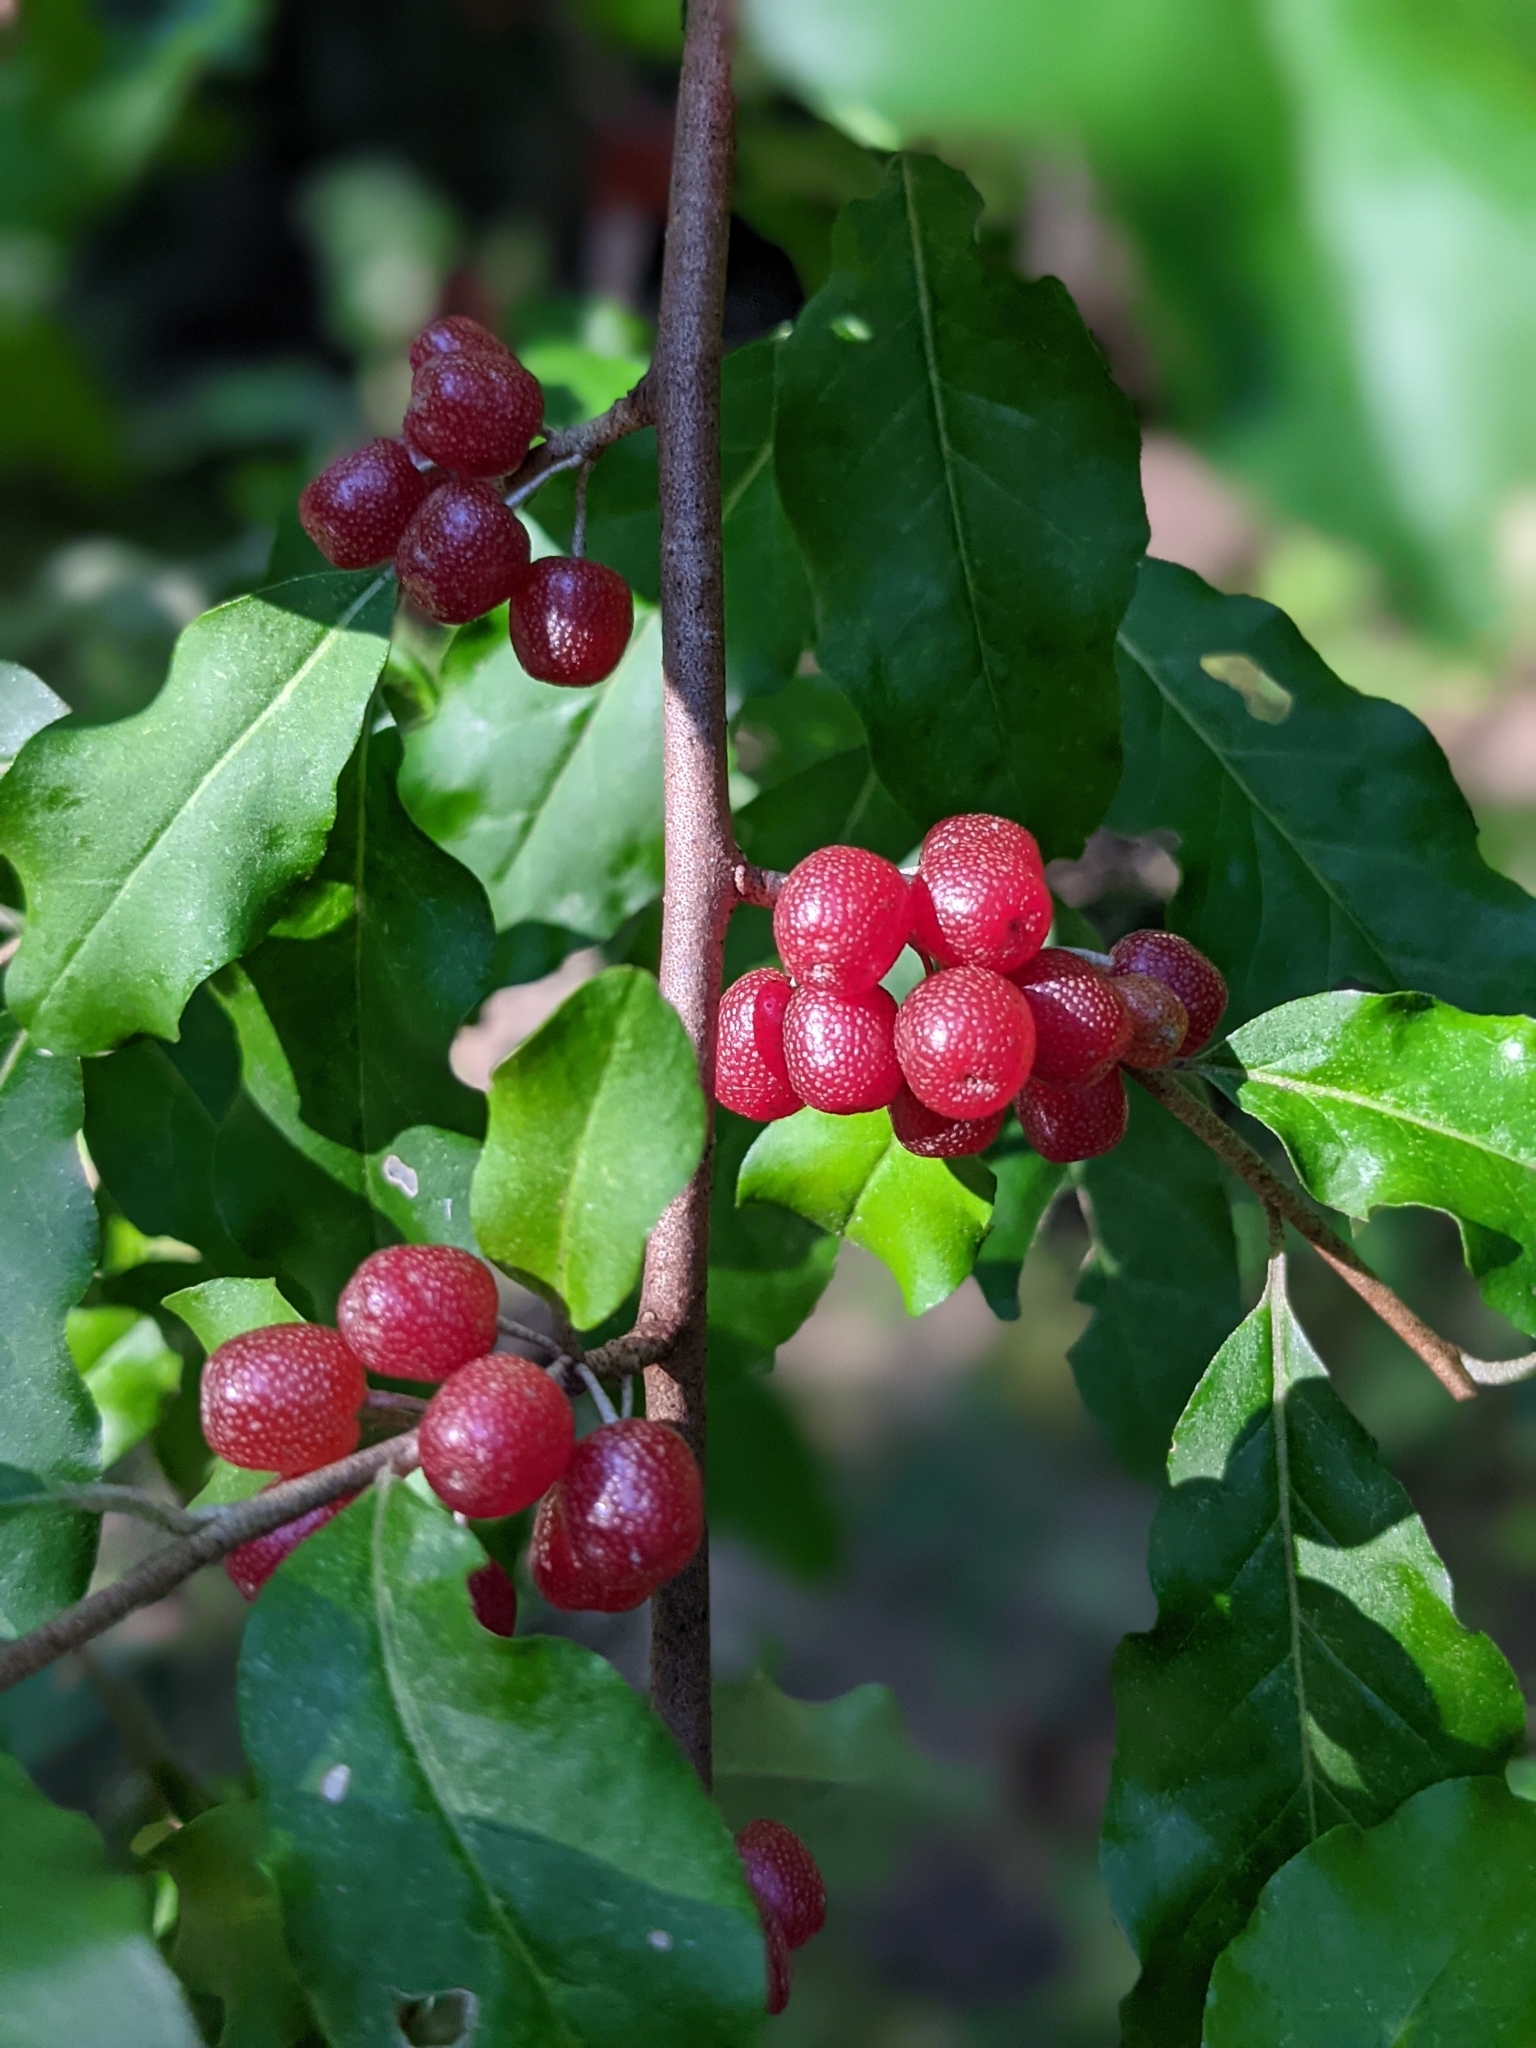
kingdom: Plantae
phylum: Tracheophyta
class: Magnoliopsida
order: Rosales
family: Elaeagnaceae
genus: Elaeagnus
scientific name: Elaeagnus umbellata
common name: Autumn olive
